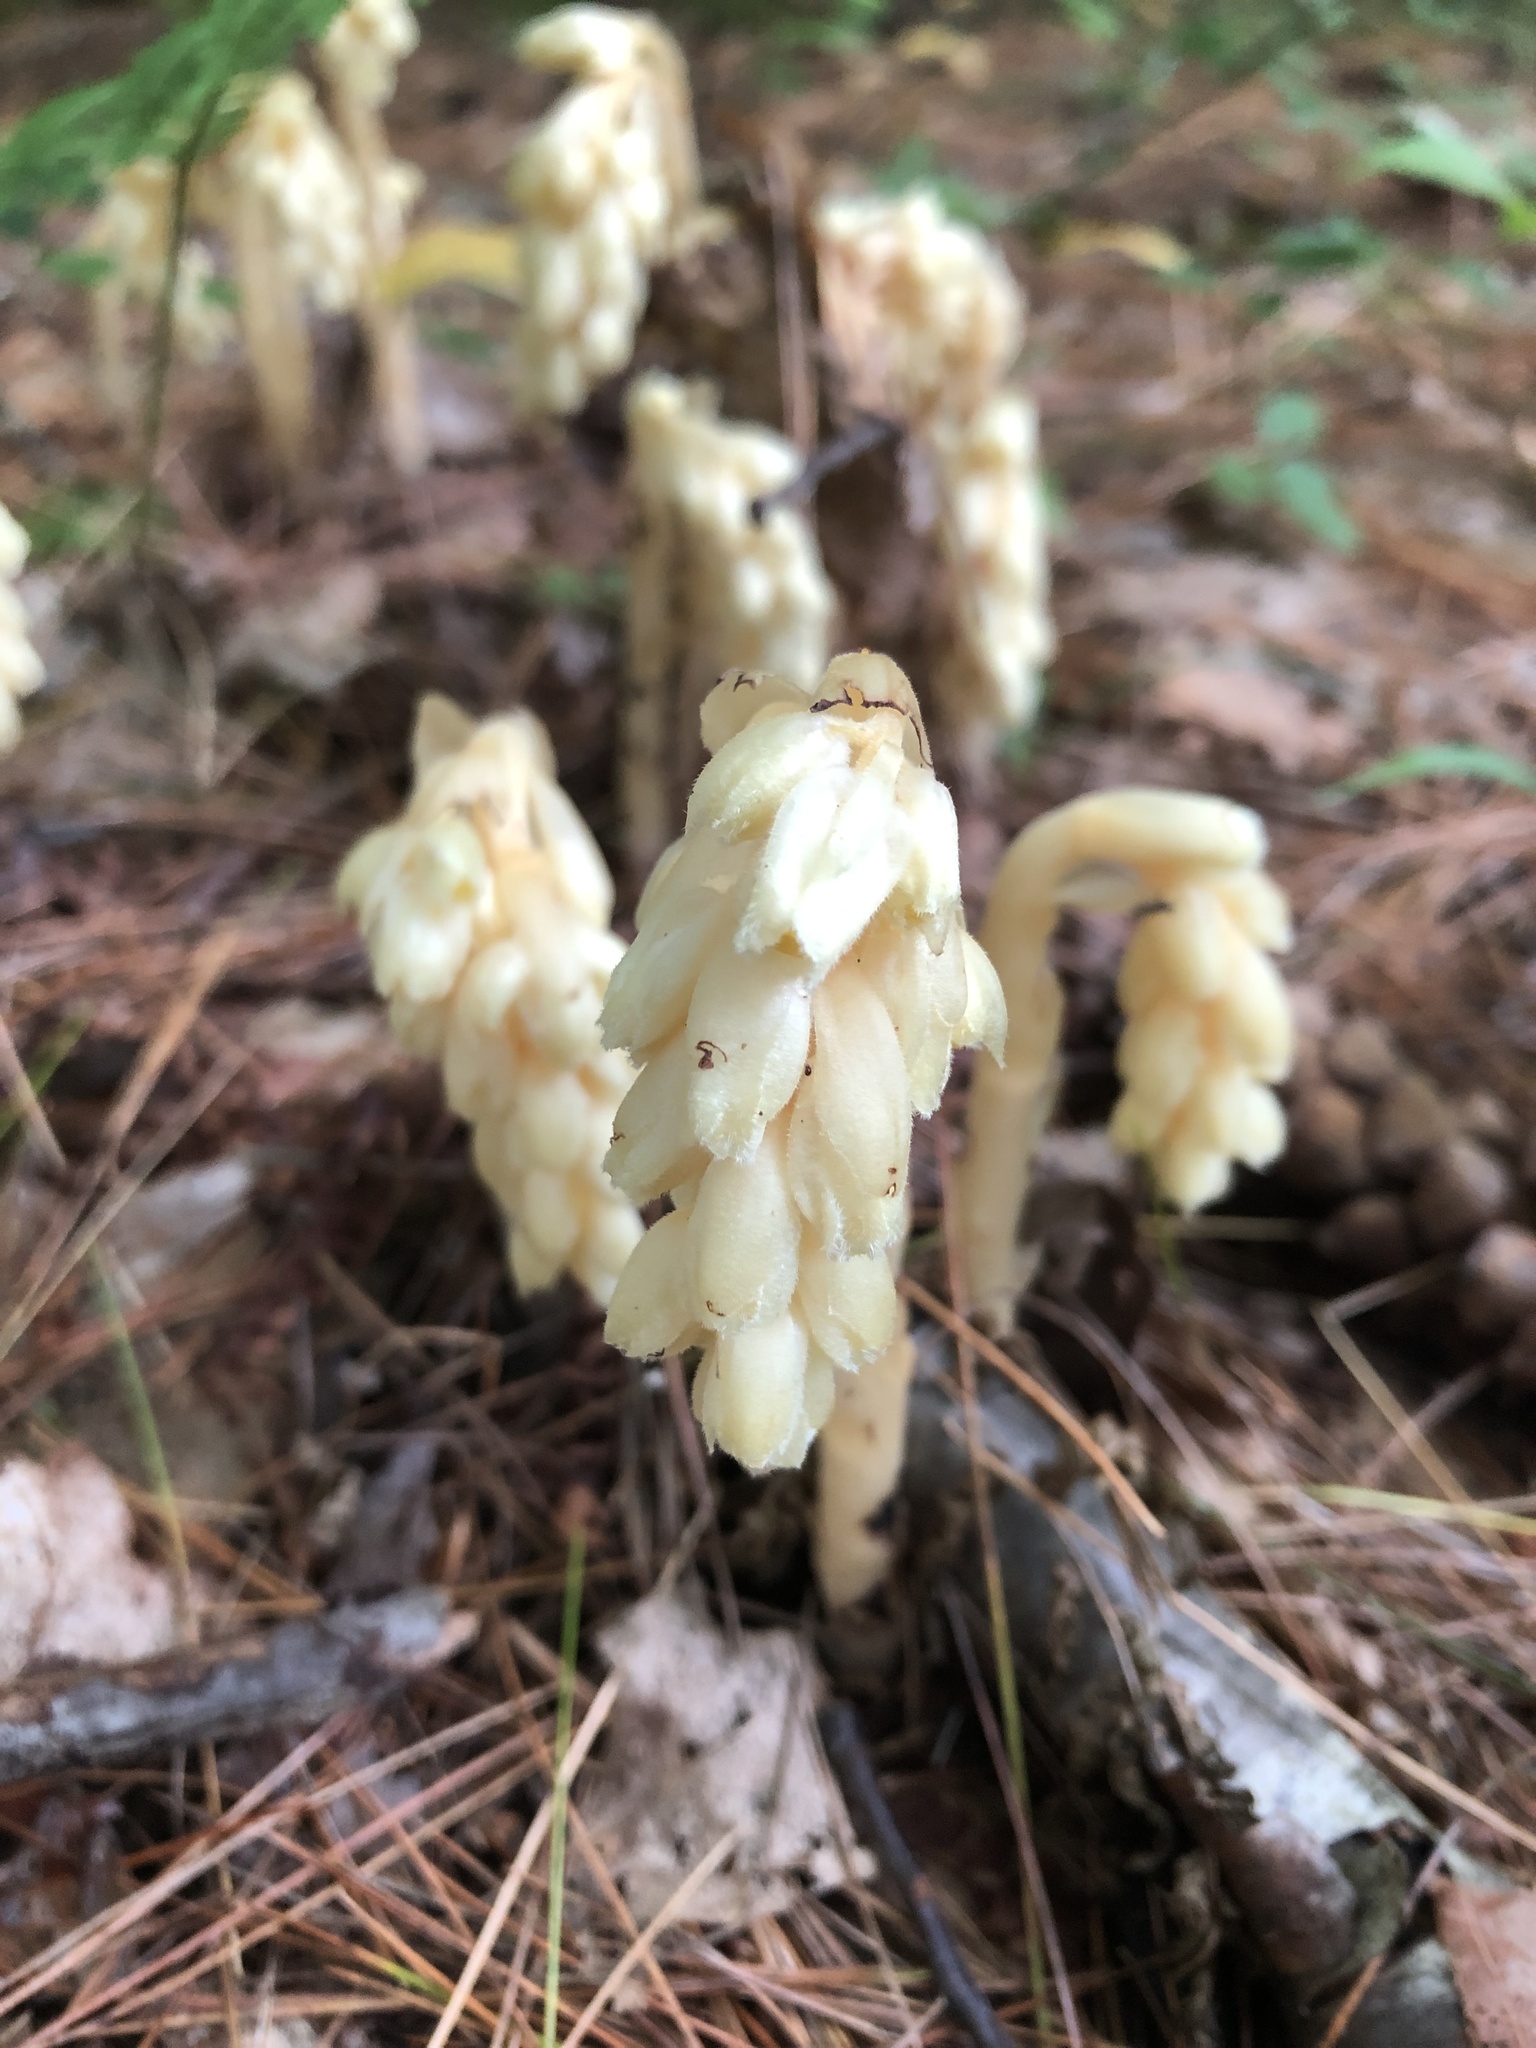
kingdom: Plantae
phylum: Tracheophyta
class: Magnoliopsida
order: Ericales
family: Ericaceae
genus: Hypopitys
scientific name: Hypopitys monotropa
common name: Yellow bird's-nest
